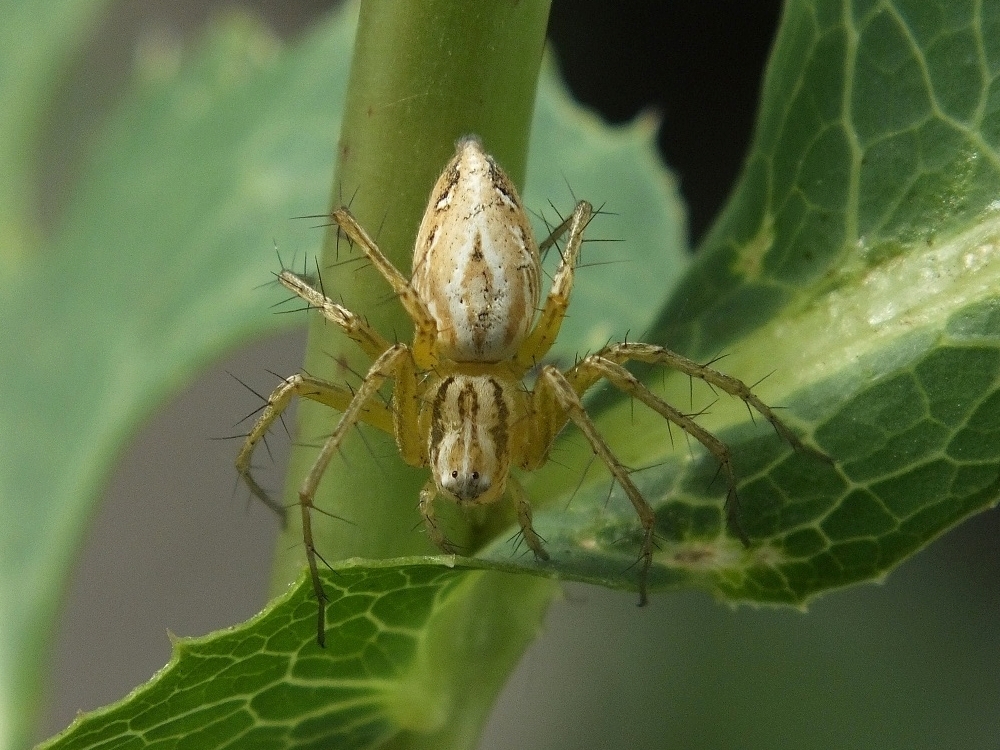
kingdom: Animalia
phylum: Arthropoda
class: Arachnida
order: Araneae
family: Oxyopidae
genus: Oxyopes
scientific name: Oxyopes lineatus
